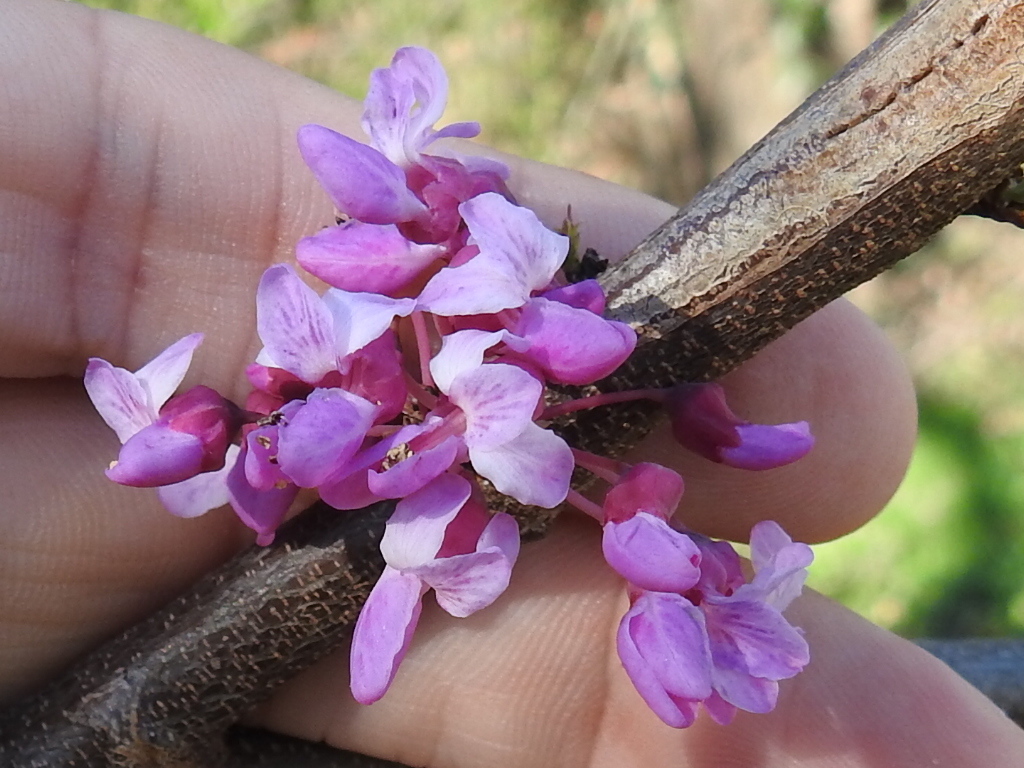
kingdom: Plantae
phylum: Tracheophyta
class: Magnoliopsida
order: Fabales
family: Fabaceae
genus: Cercis
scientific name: Cercis canadensis
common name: Eastern redbud
